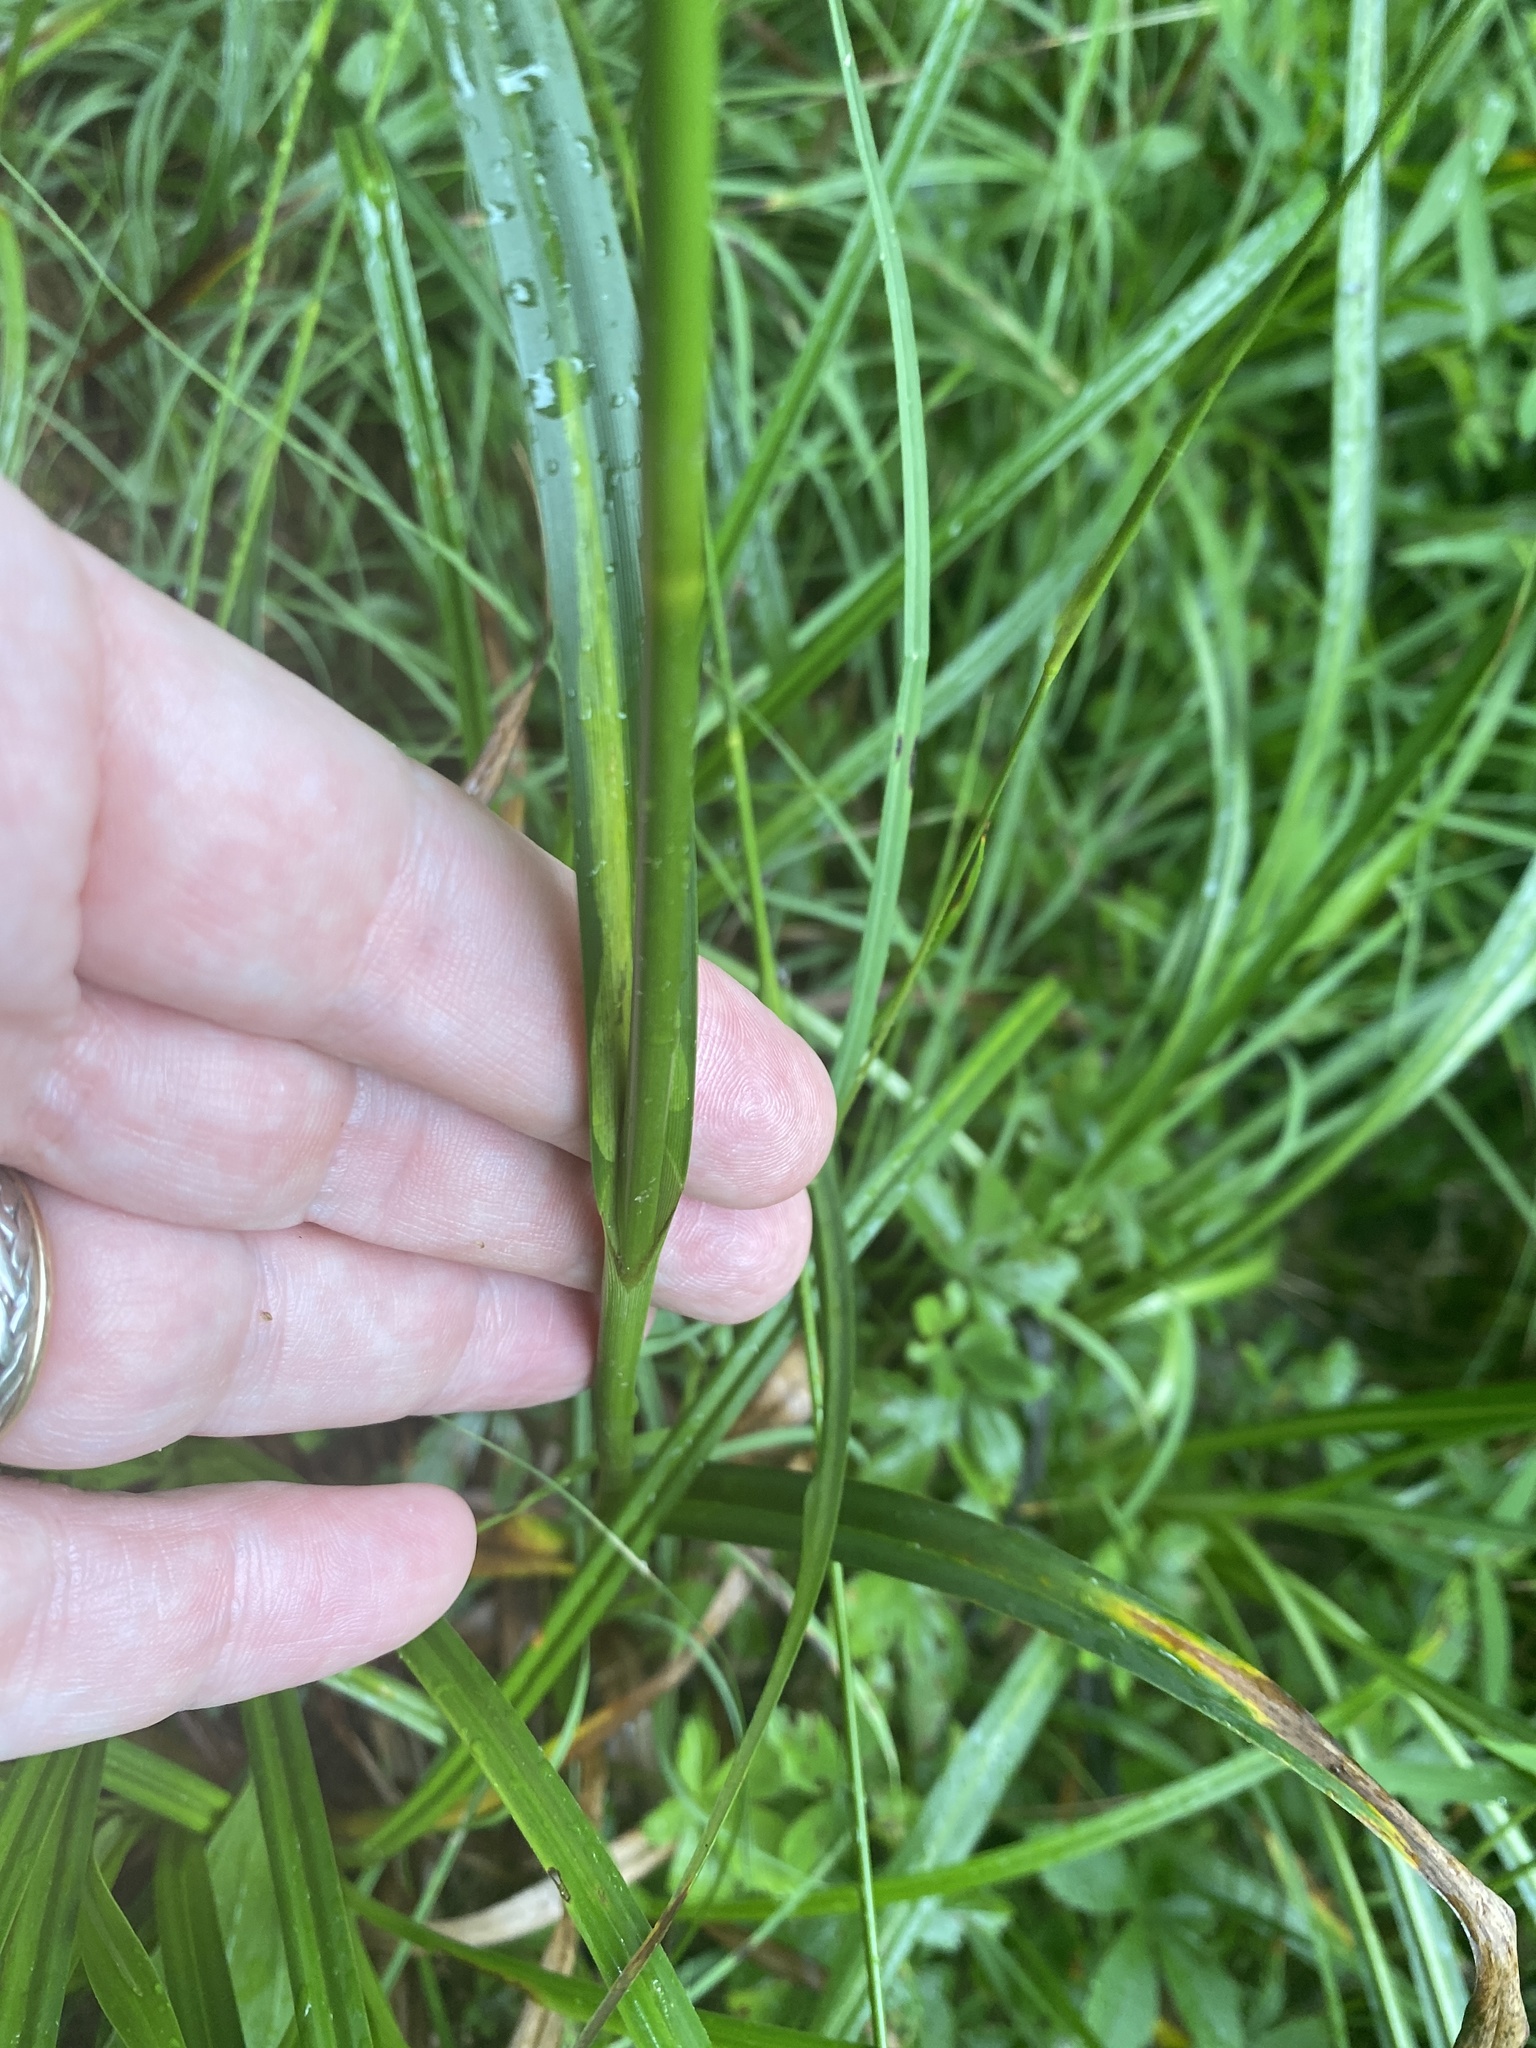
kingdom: Plantae
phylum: Tracheophyta
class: Liliopsida
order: Poales
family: Cyperaceae
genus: Scirpus
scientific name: Scirpus atrovirens
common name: Black bulrush
